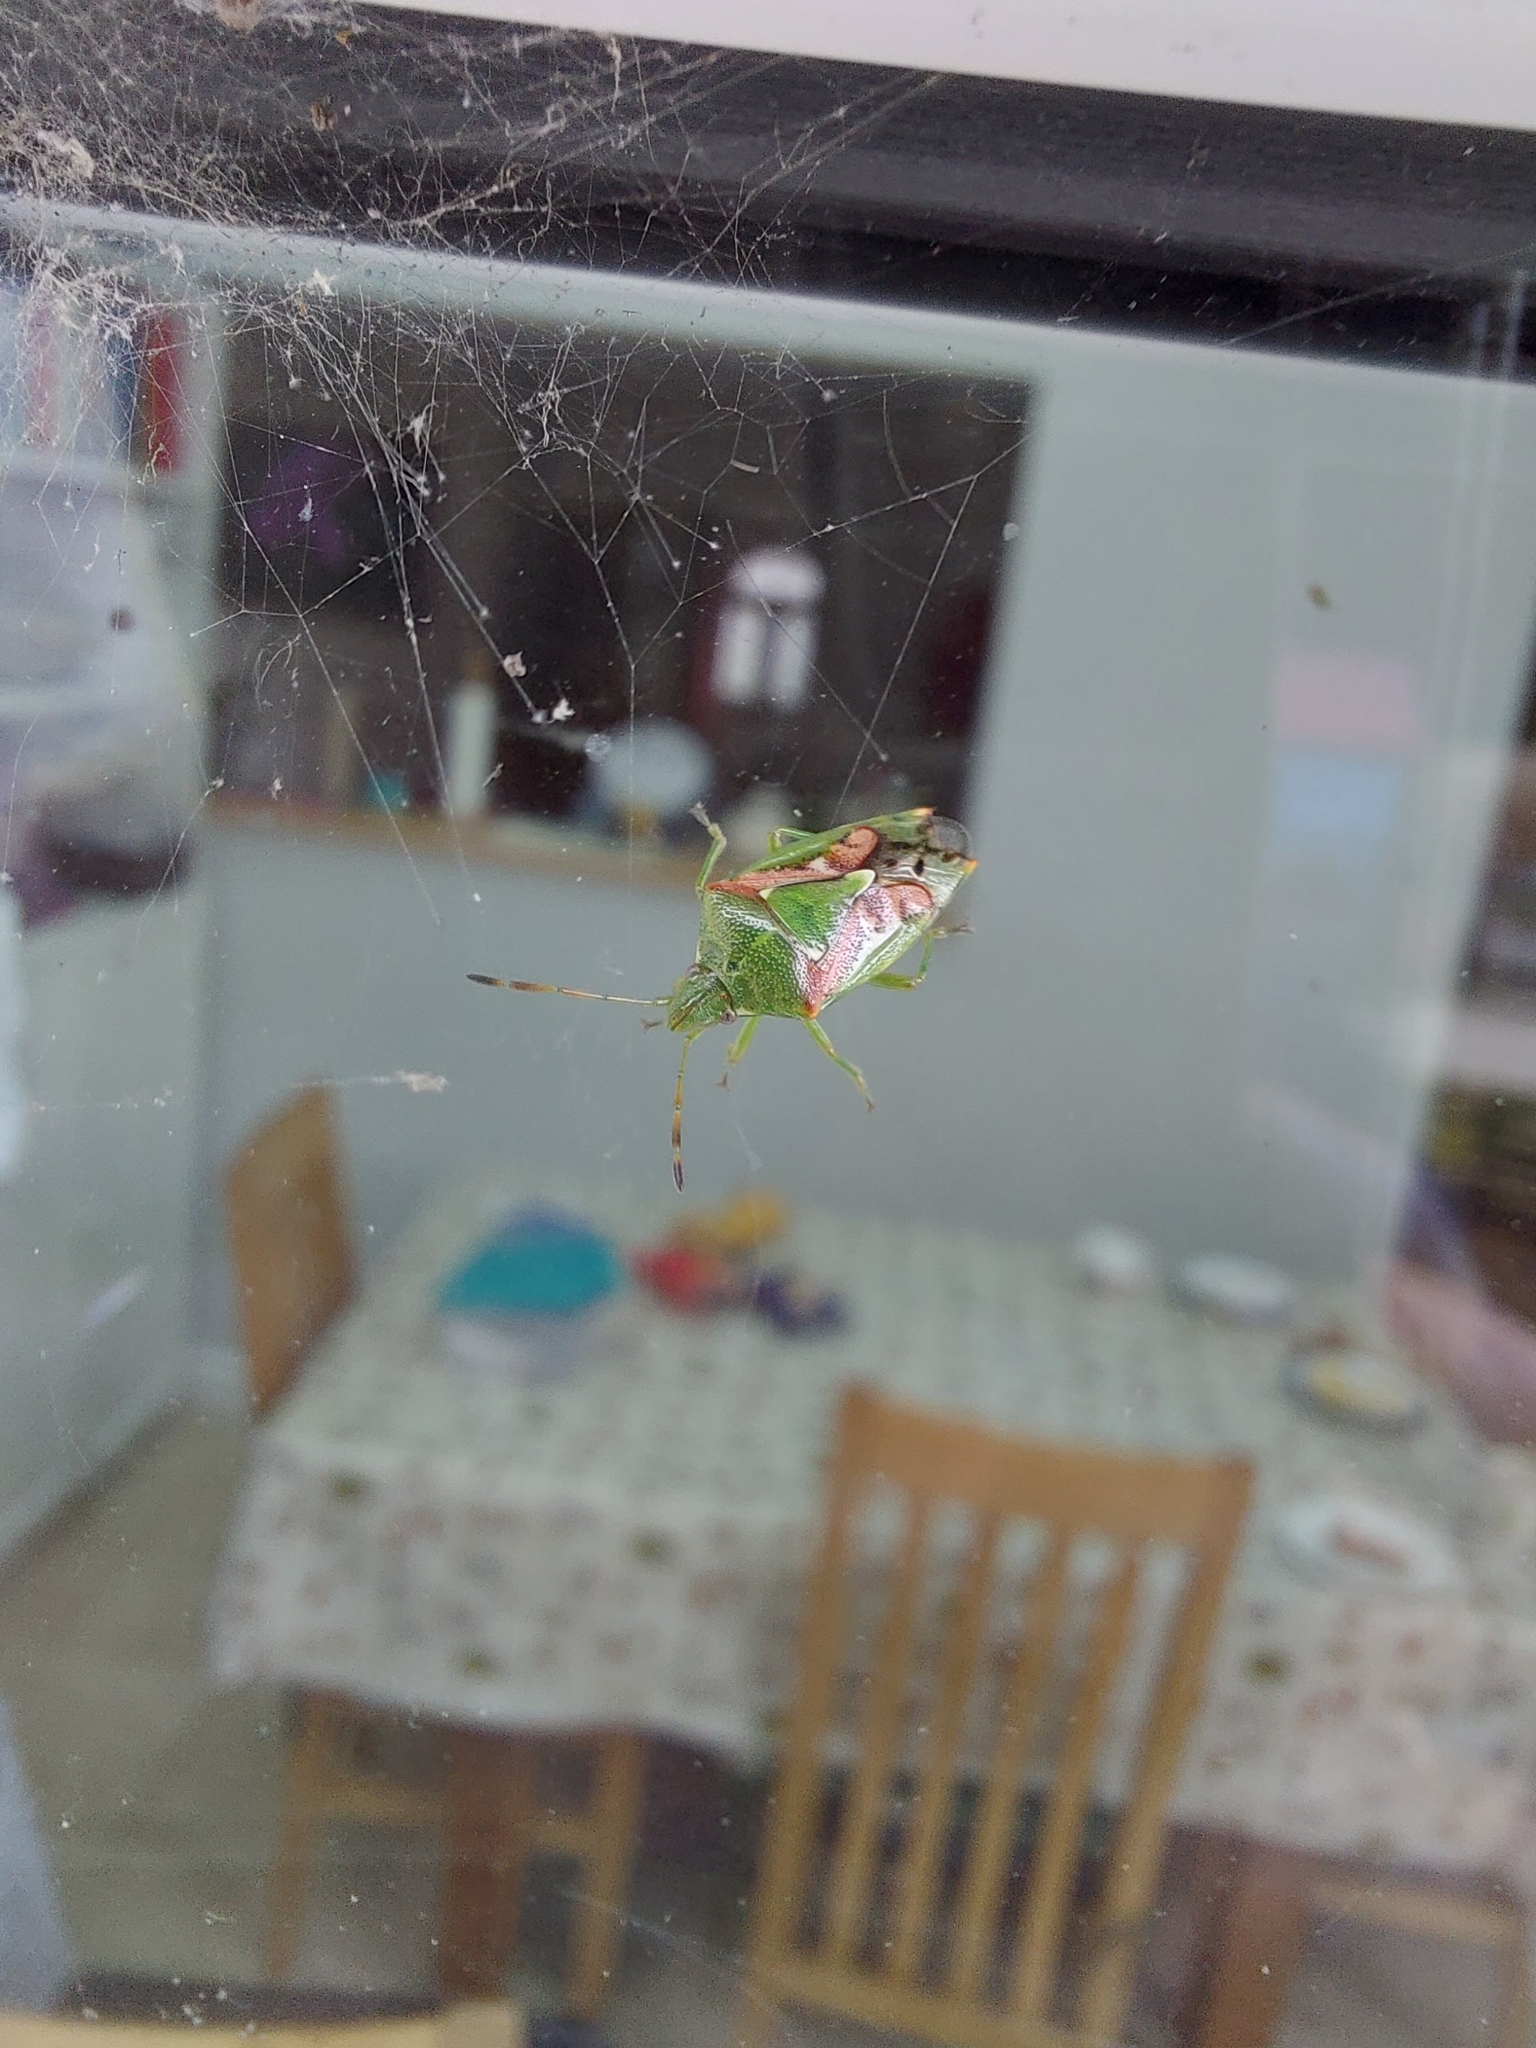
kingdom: Animalia
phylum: Arthropoda
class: Insecta
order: Hemiptera
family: Acanthosomatidae
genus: Cyphostethus
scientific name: Cyphostethus tristriatus
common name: Juniper shieldbug
